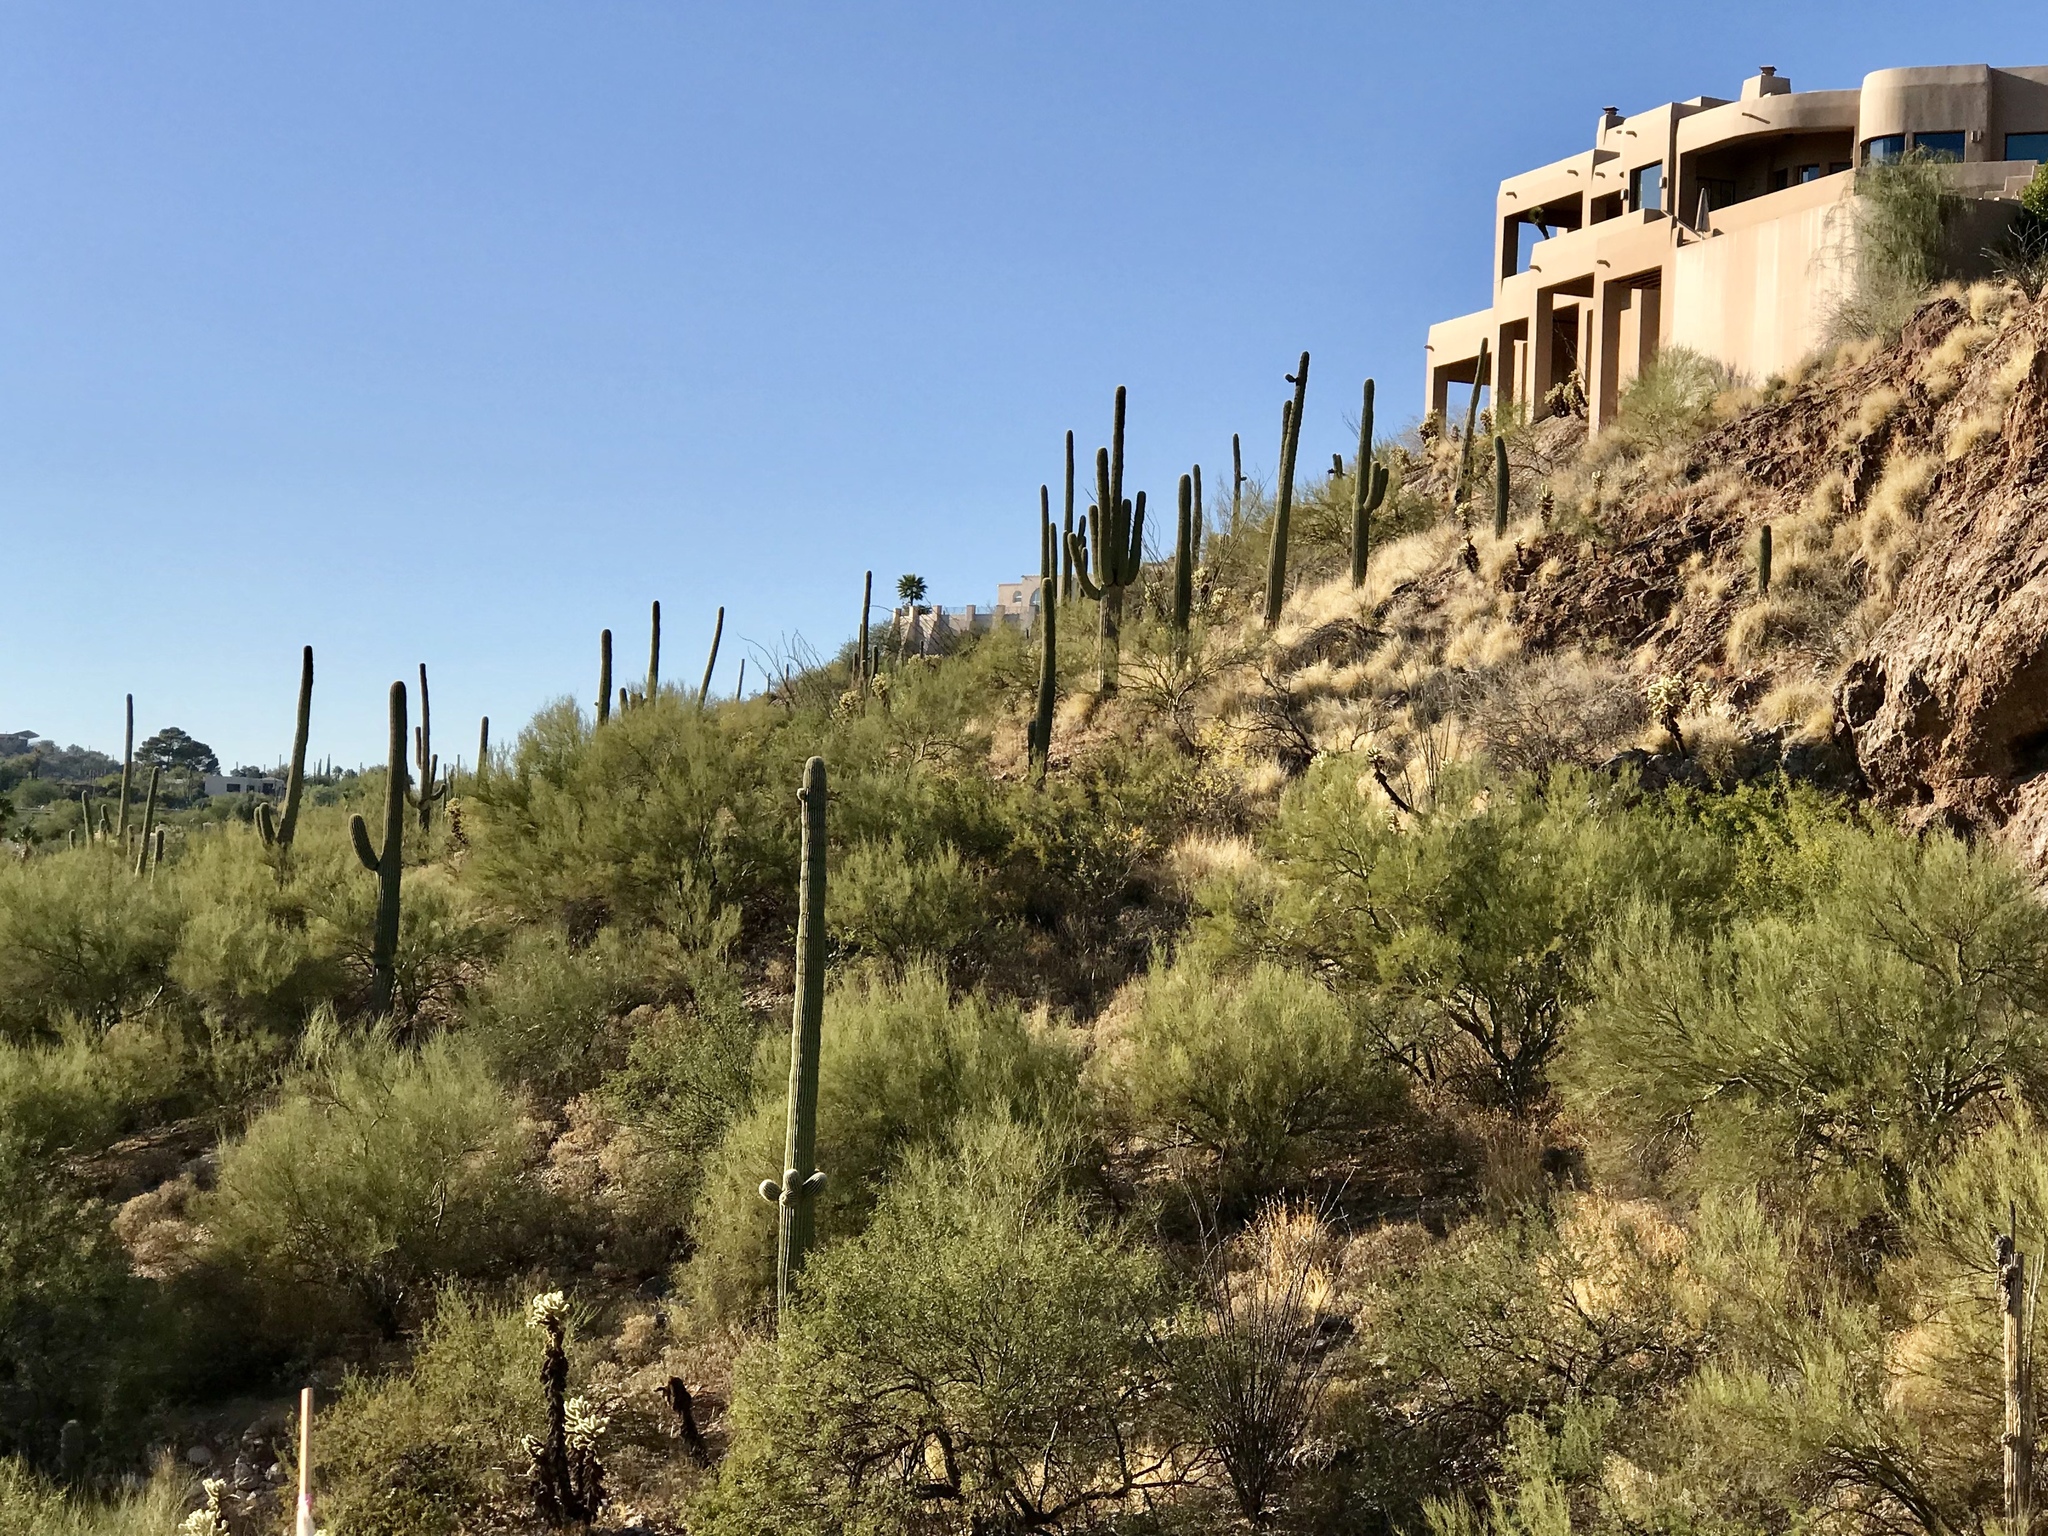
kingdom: Plantae
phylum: Tracheophyta
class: Magnoliopsida
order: Caryophyllales
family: Cactaceae
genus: Carnegiea
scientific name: Carnegiea gigantea
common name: Saguaro
